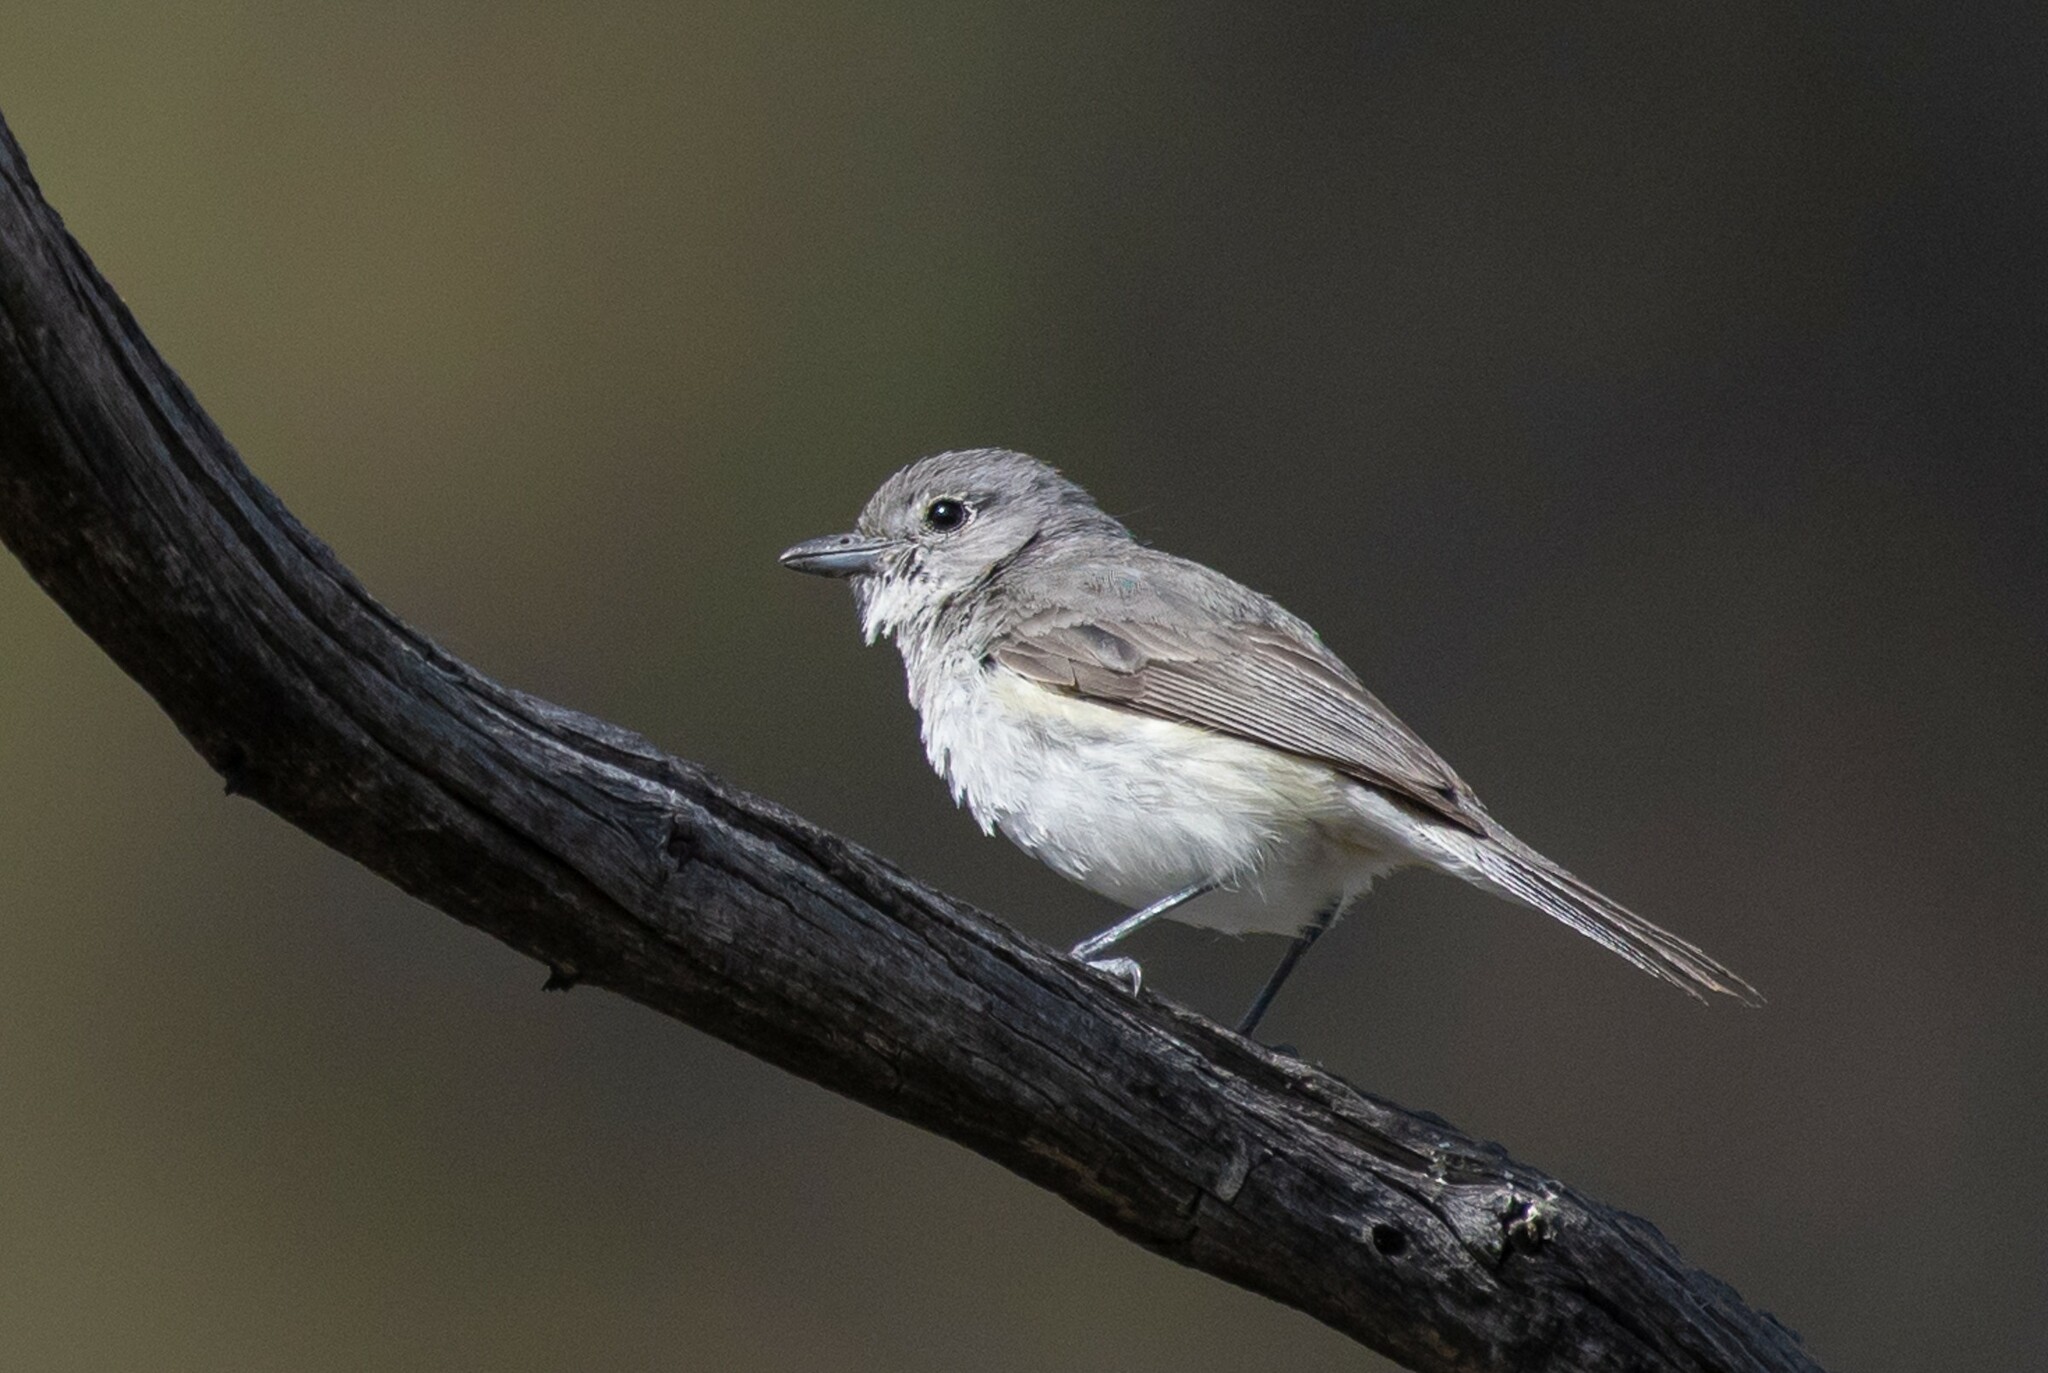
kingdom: Animalia
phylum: Chordata
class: Aves
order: Passeriformes
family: Vireonidae
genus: Vireo
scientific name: Vireo vicinior
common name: Gray vireo
